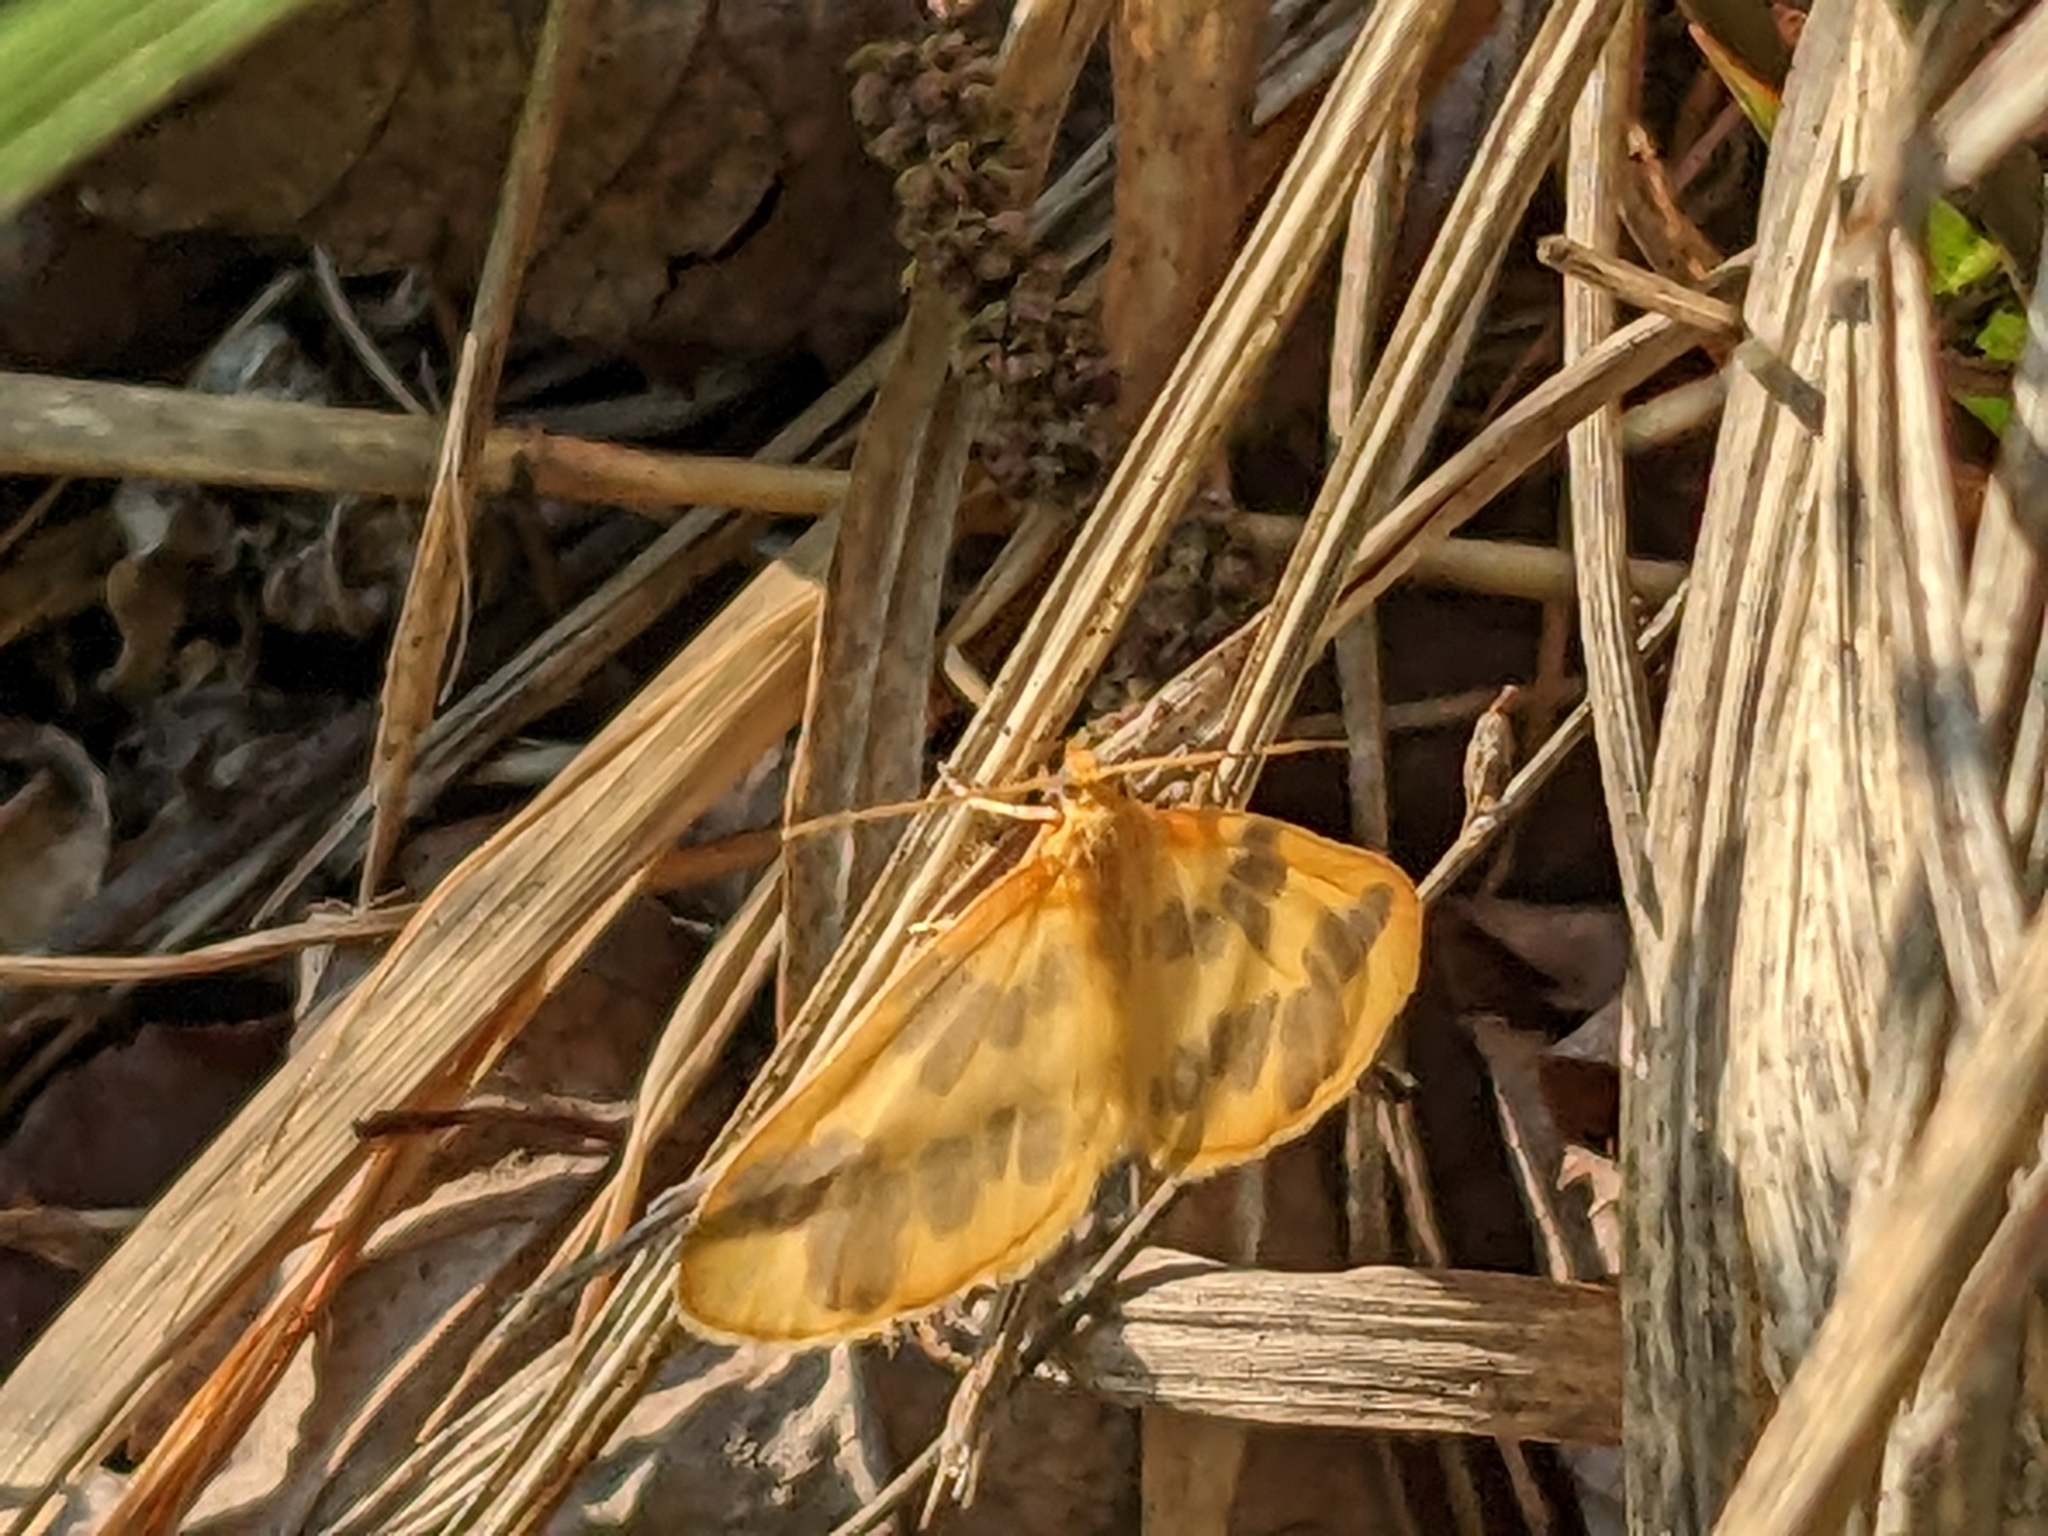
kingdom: Animalia
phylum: Arthropoda
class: Insecta
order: Lepidoptera
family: Geometridae
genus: Eubaphe
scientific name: Eubaphe mendica
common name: Beggar
